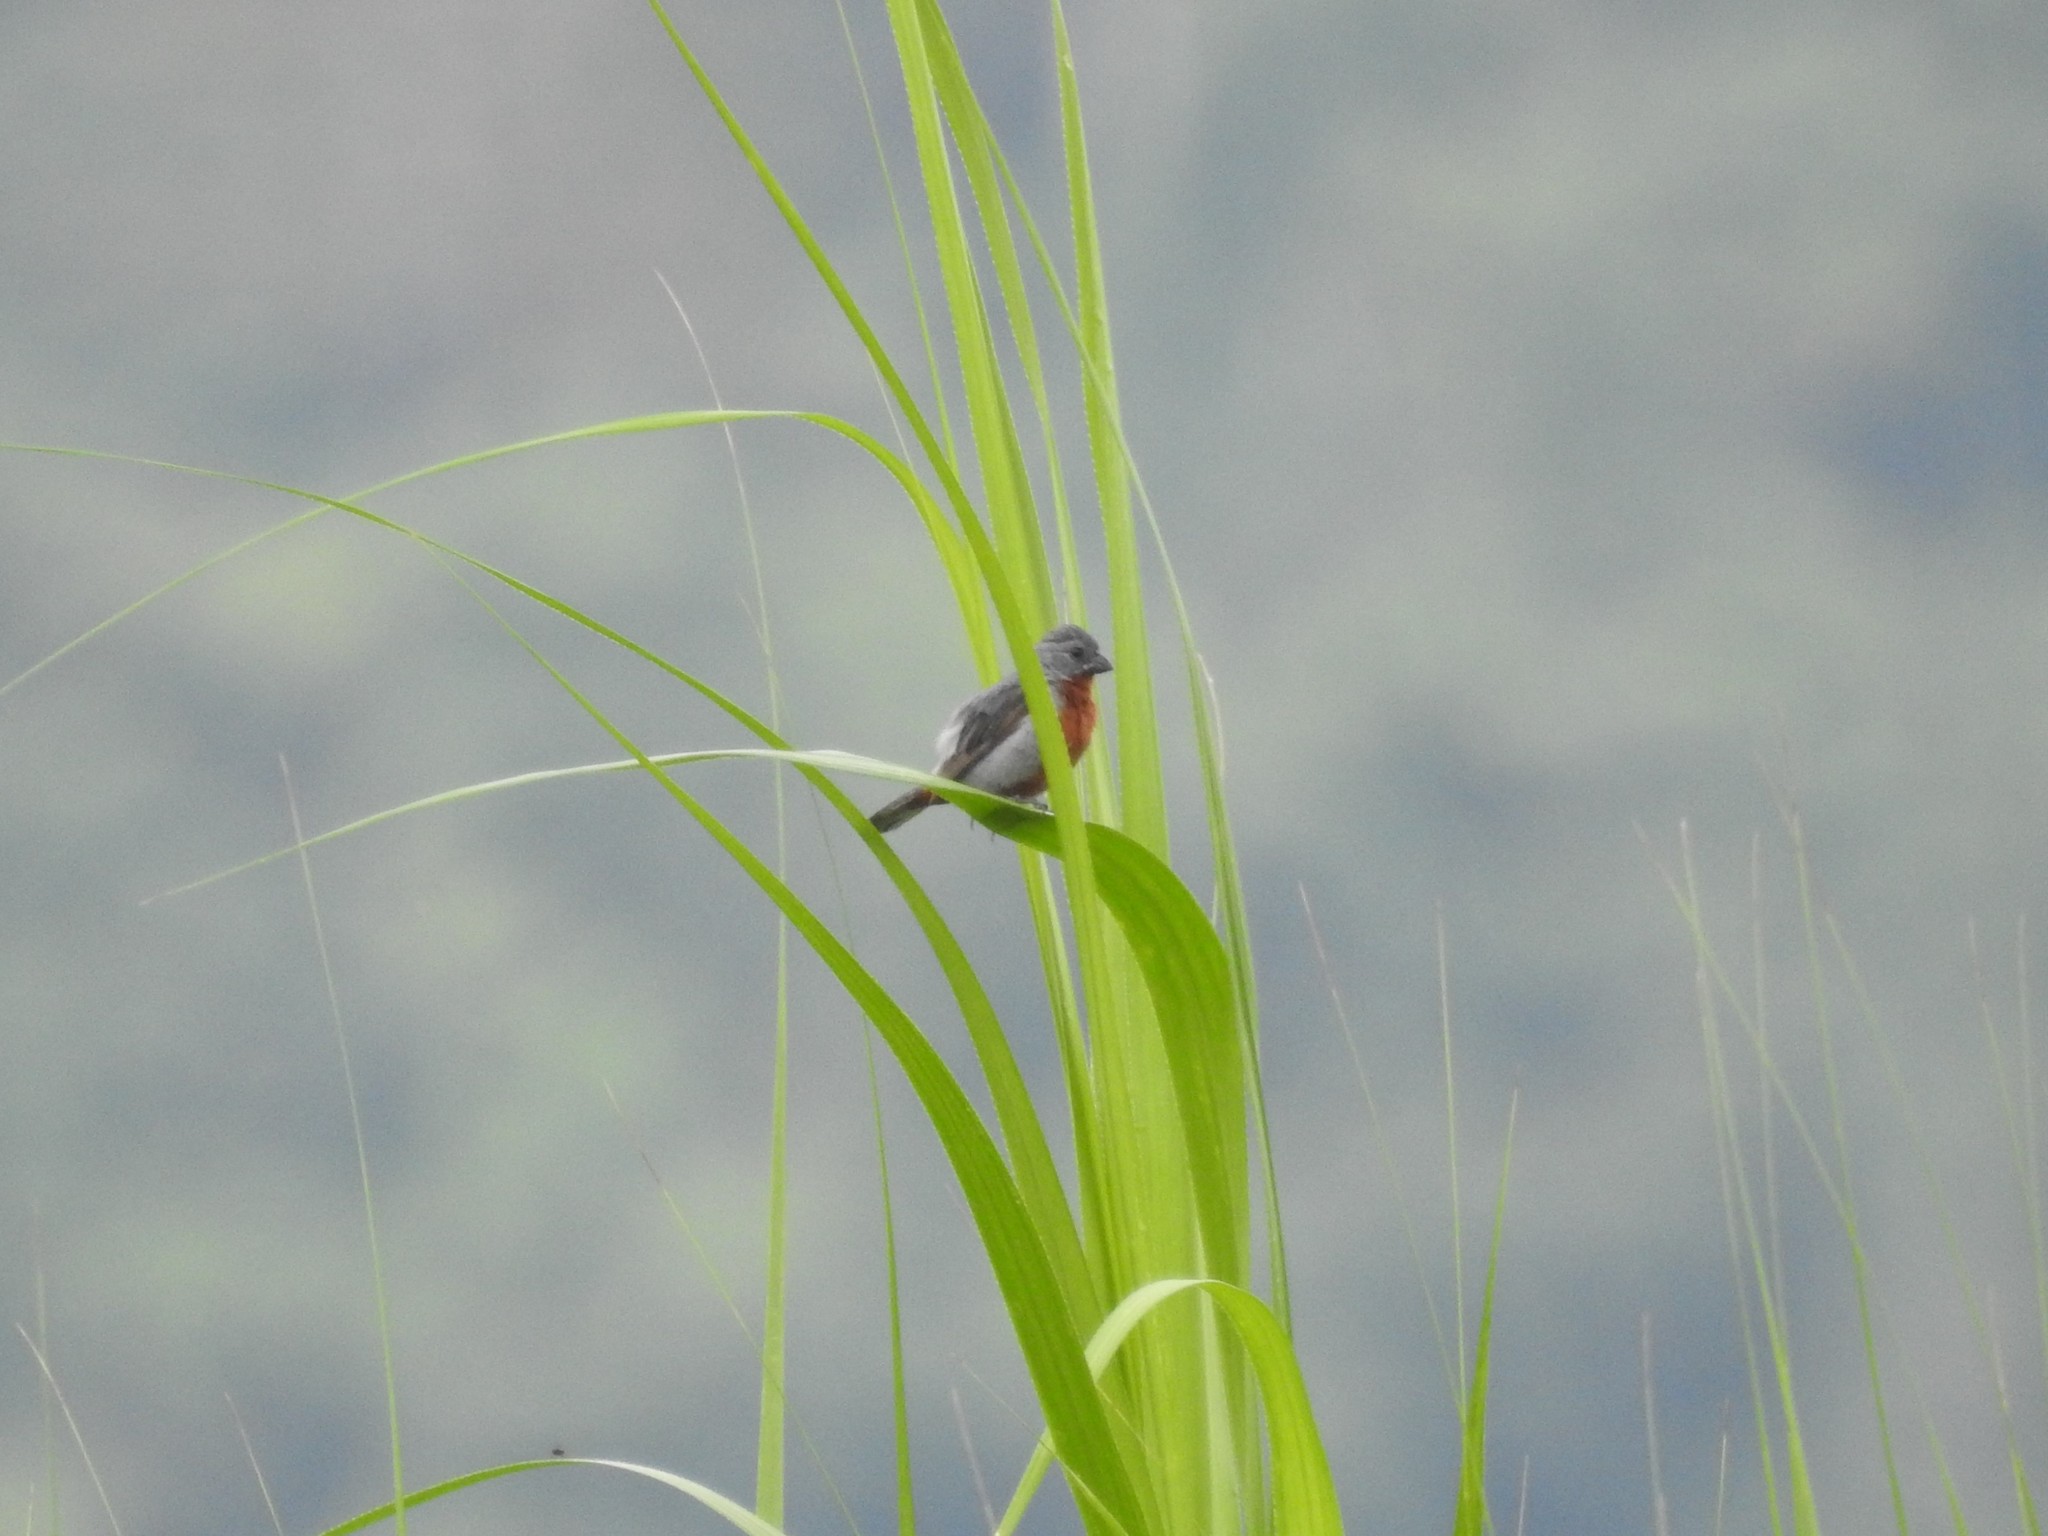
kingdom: Animalia
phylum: Chordata
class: Aves
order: Passeriformes
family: Thraupidae
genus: Sporophila
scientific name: Sporophila castaneiventris
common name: Chestnut-bellied seedeater
